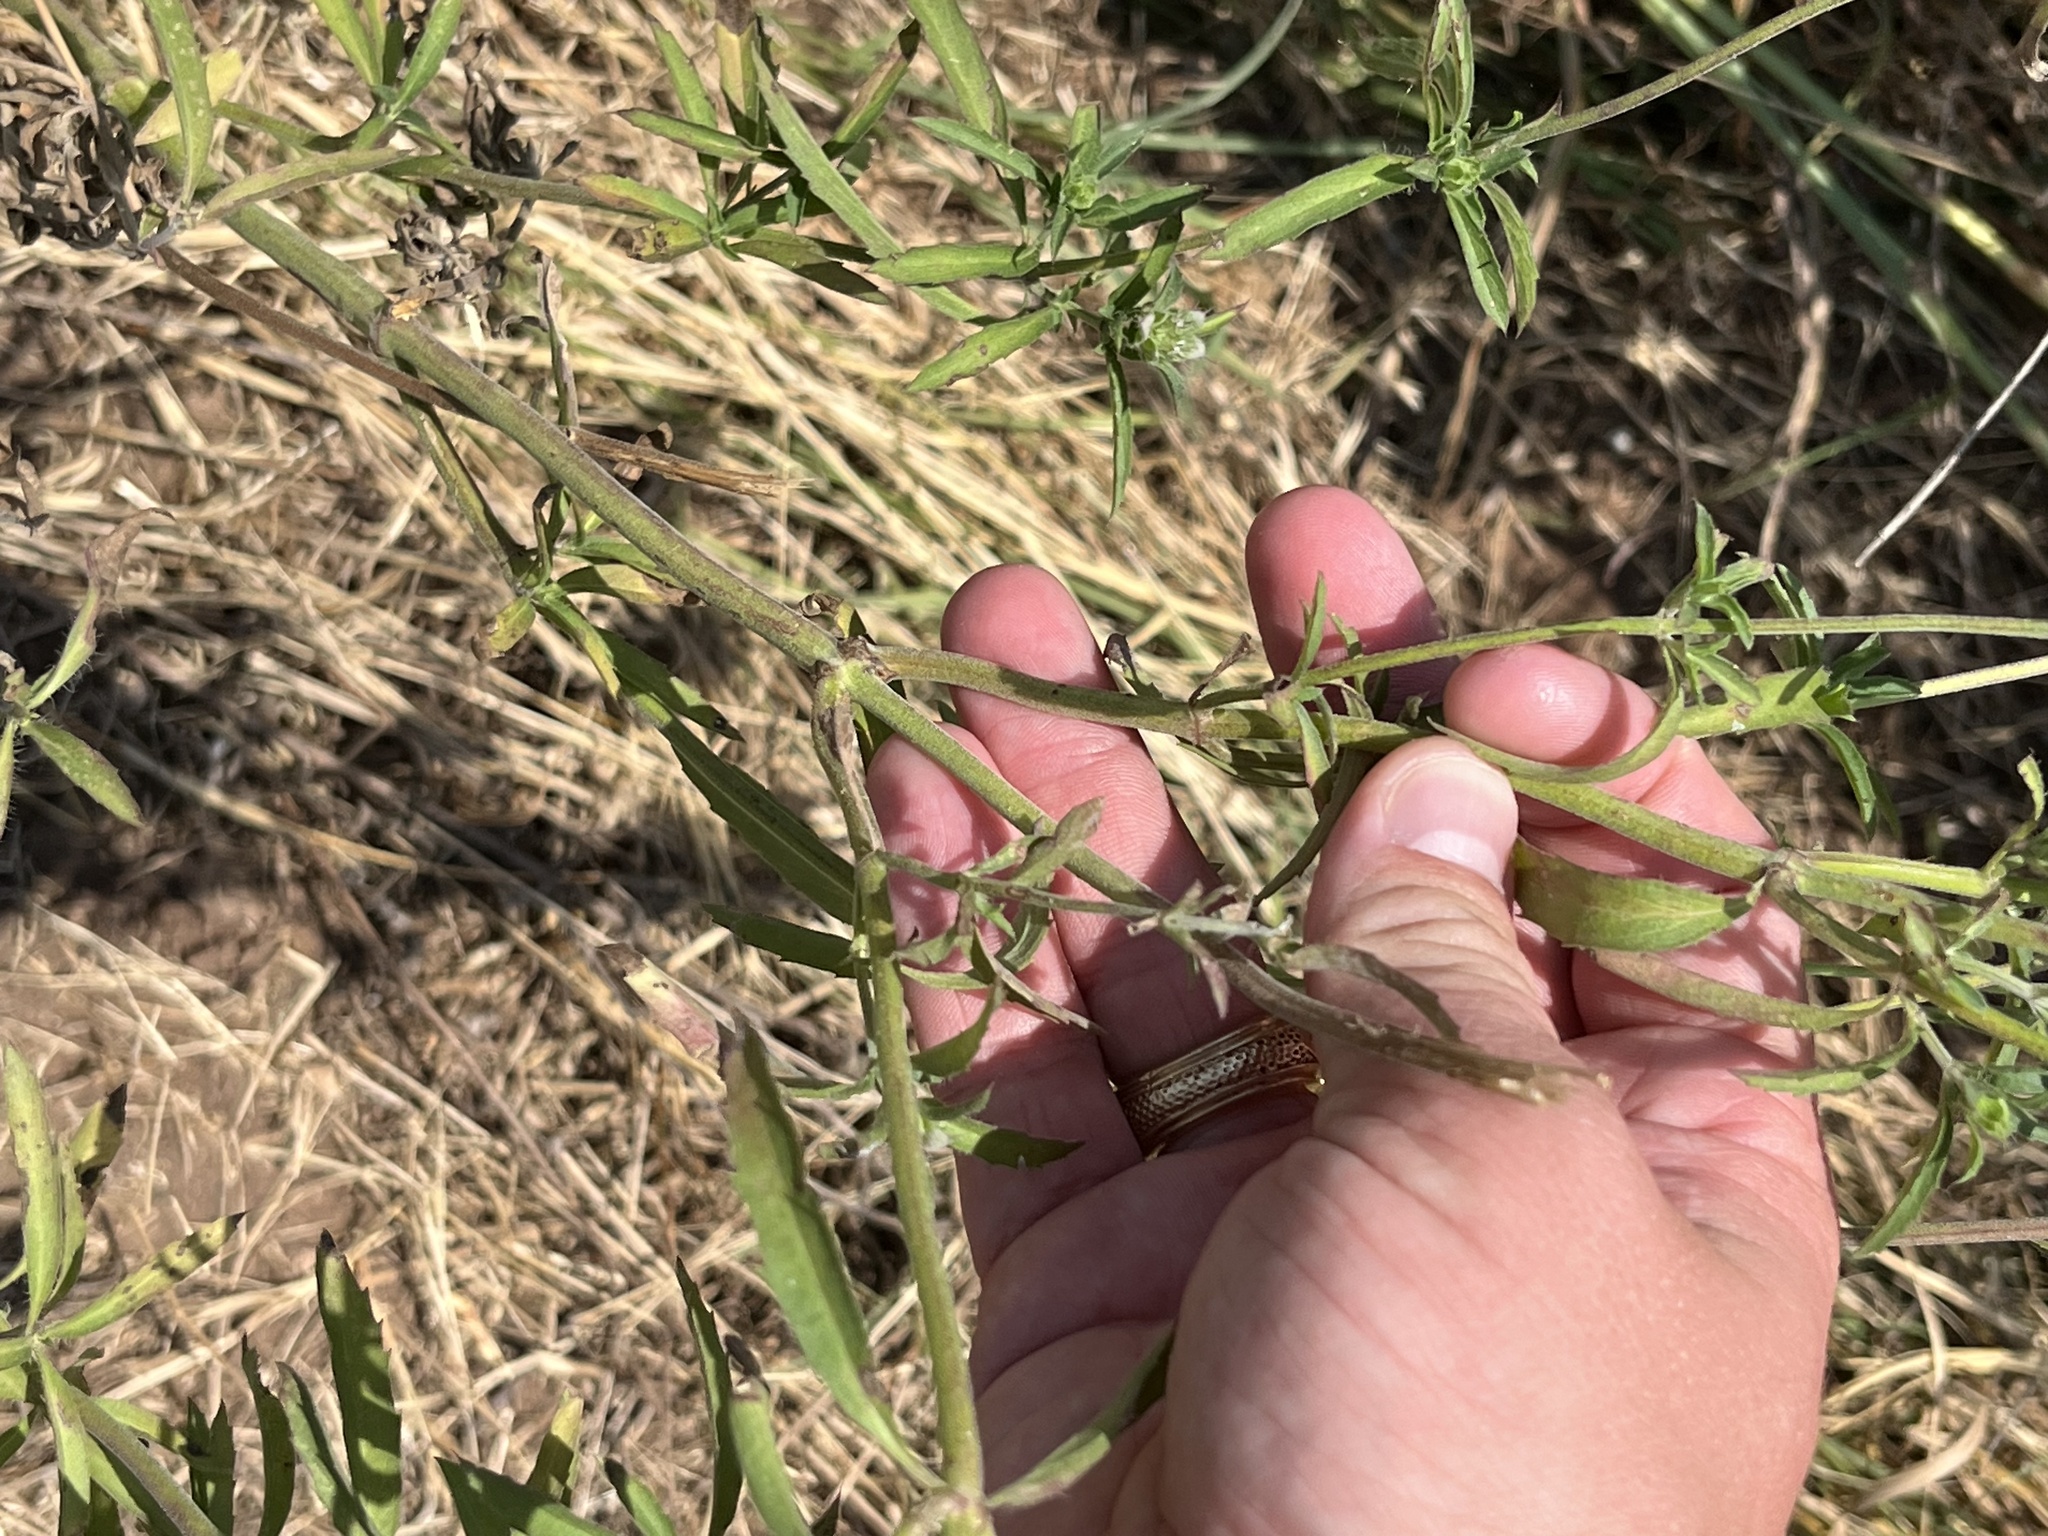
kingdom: Plantae
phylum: Tracheophyta
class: Magnoliopsida
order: Lamiales
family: Lamiaceae
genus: Monarda
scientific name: Monarda citriodora
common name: Lemon beebalm
